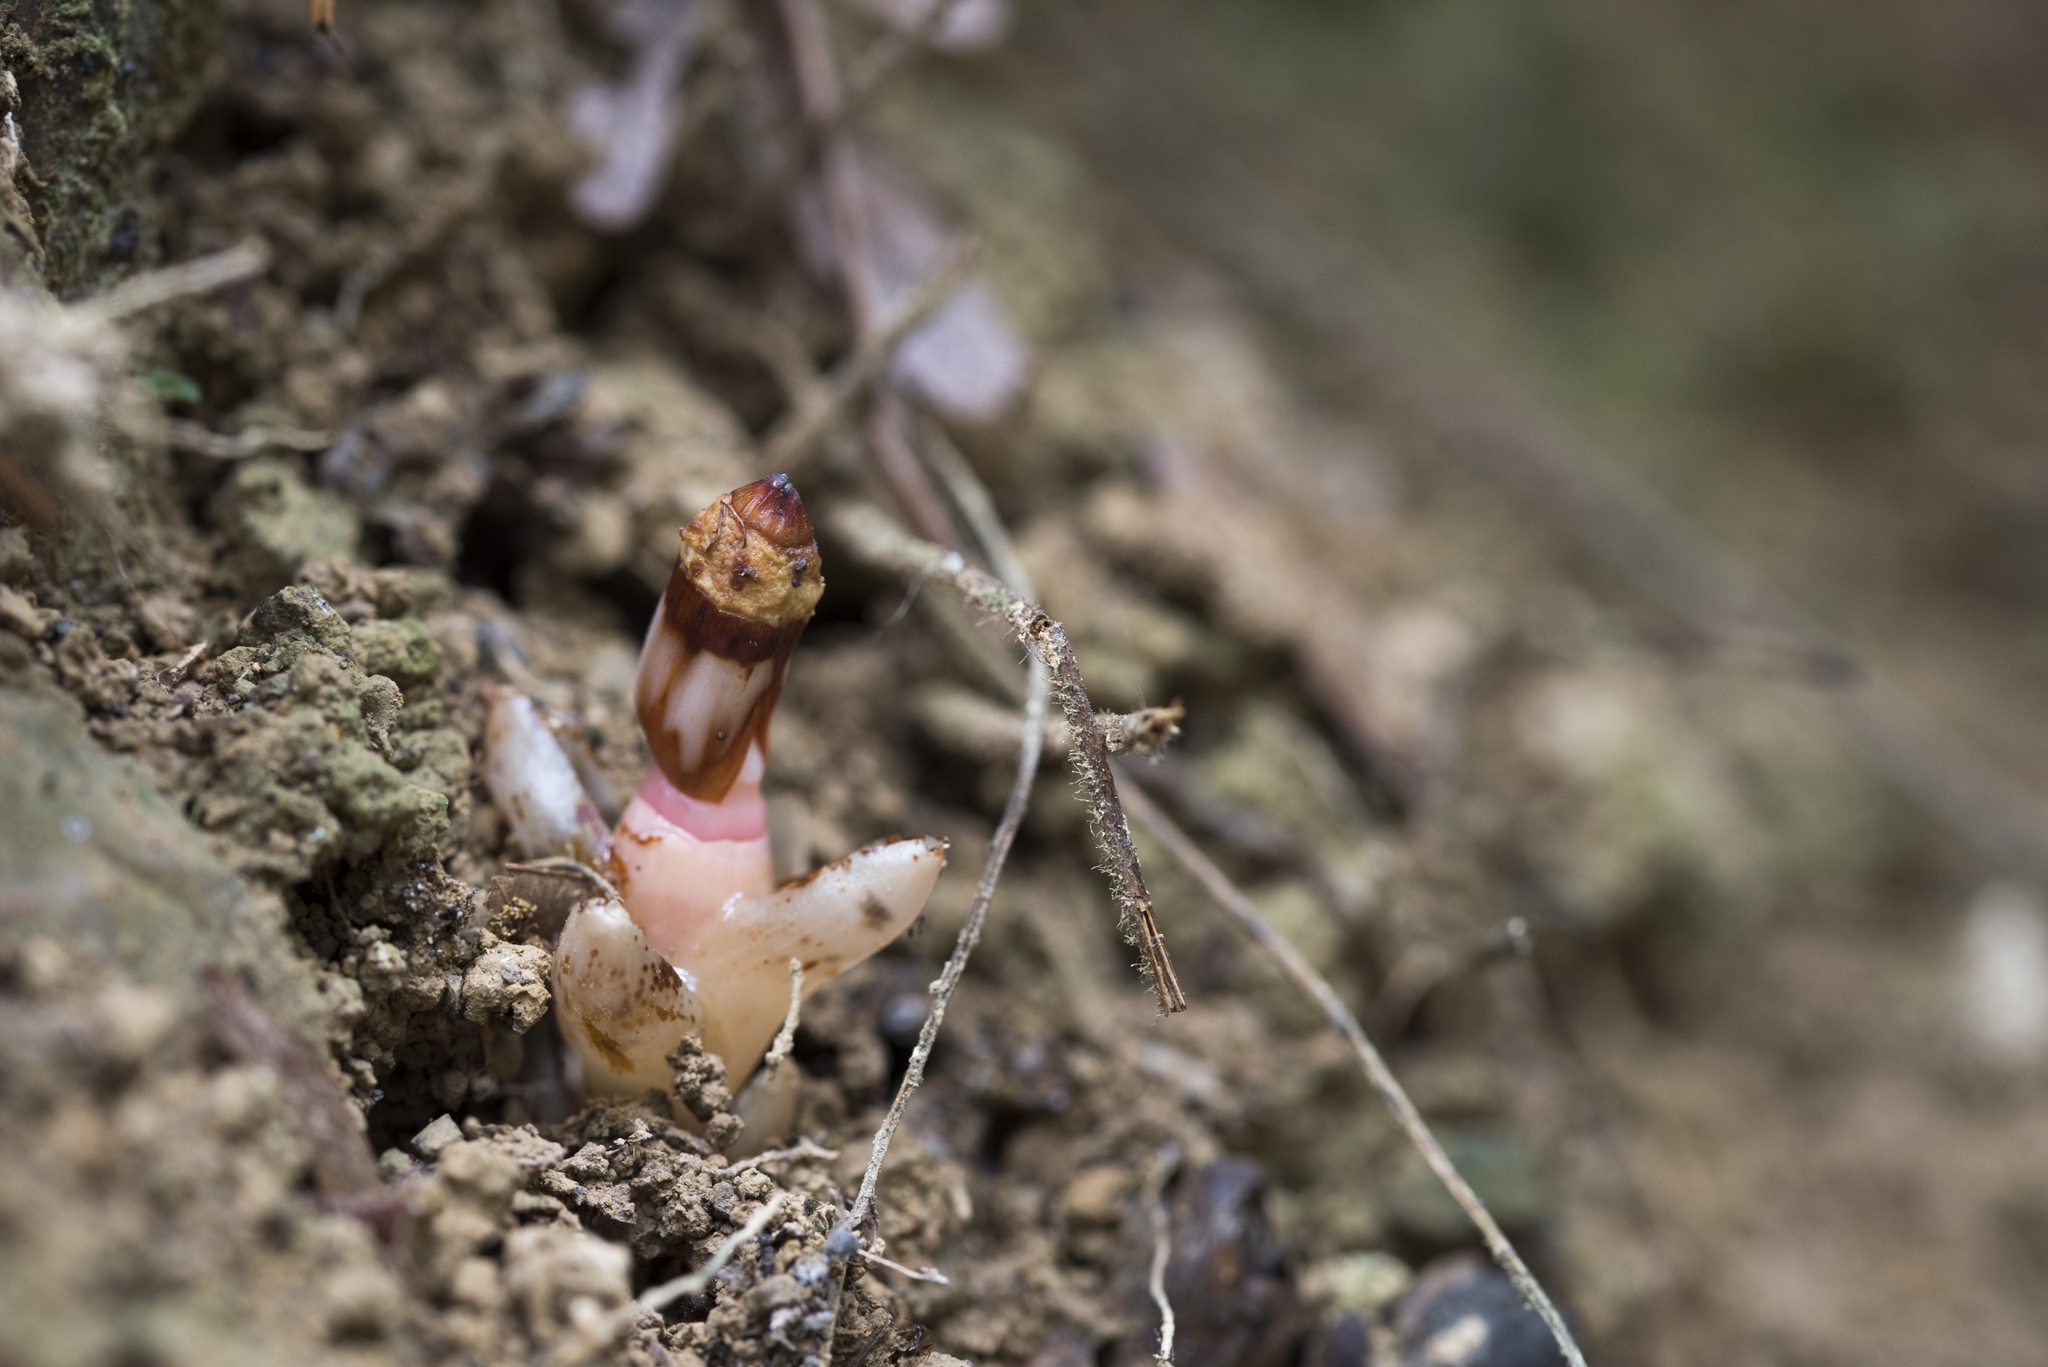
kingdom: Plantae
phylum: Tracheophyta
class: Magnoliopsida
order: Ericales
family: Mitrastemonaceae
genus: Mitrastemon
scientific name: Mitrastemon yamamotoi
